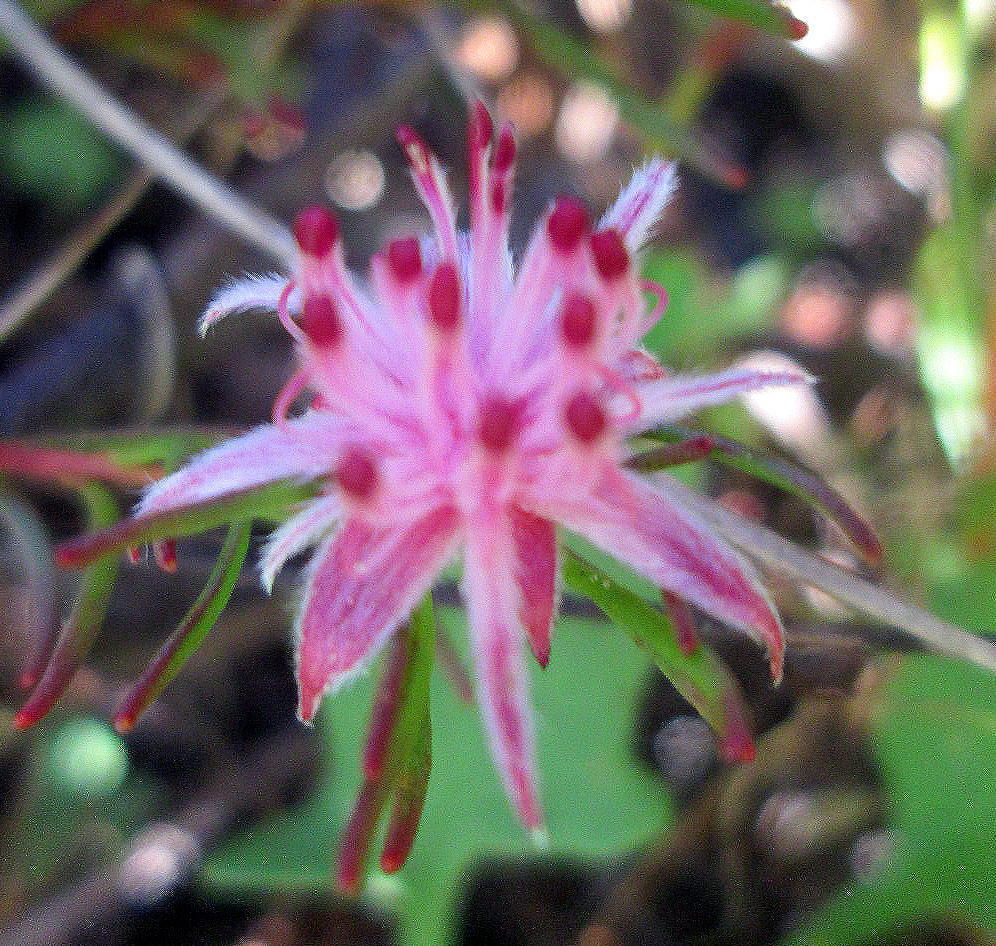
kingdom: Plantae
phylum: Tracheophyta
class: Magnoliopsida
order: Proteales
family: Proteaceae
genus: Diastella
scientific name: Diastella proteoides
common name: Flats silkypuff
